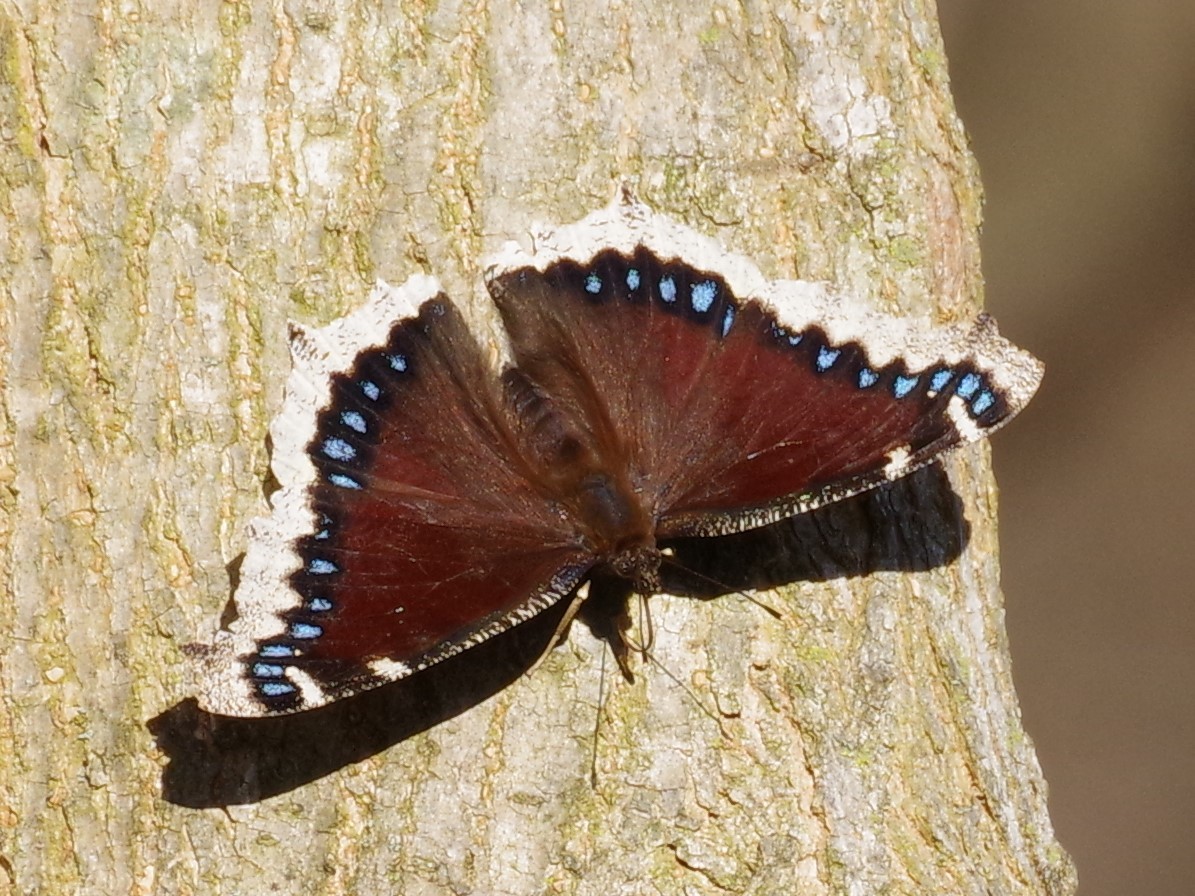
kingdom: Animalia
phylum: Arthropoda
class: Insecta
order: Lepidoptera
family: Nymphalidae
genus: Nymphalis
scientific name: Nymphalis antiopa
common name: Camberwell beauty
